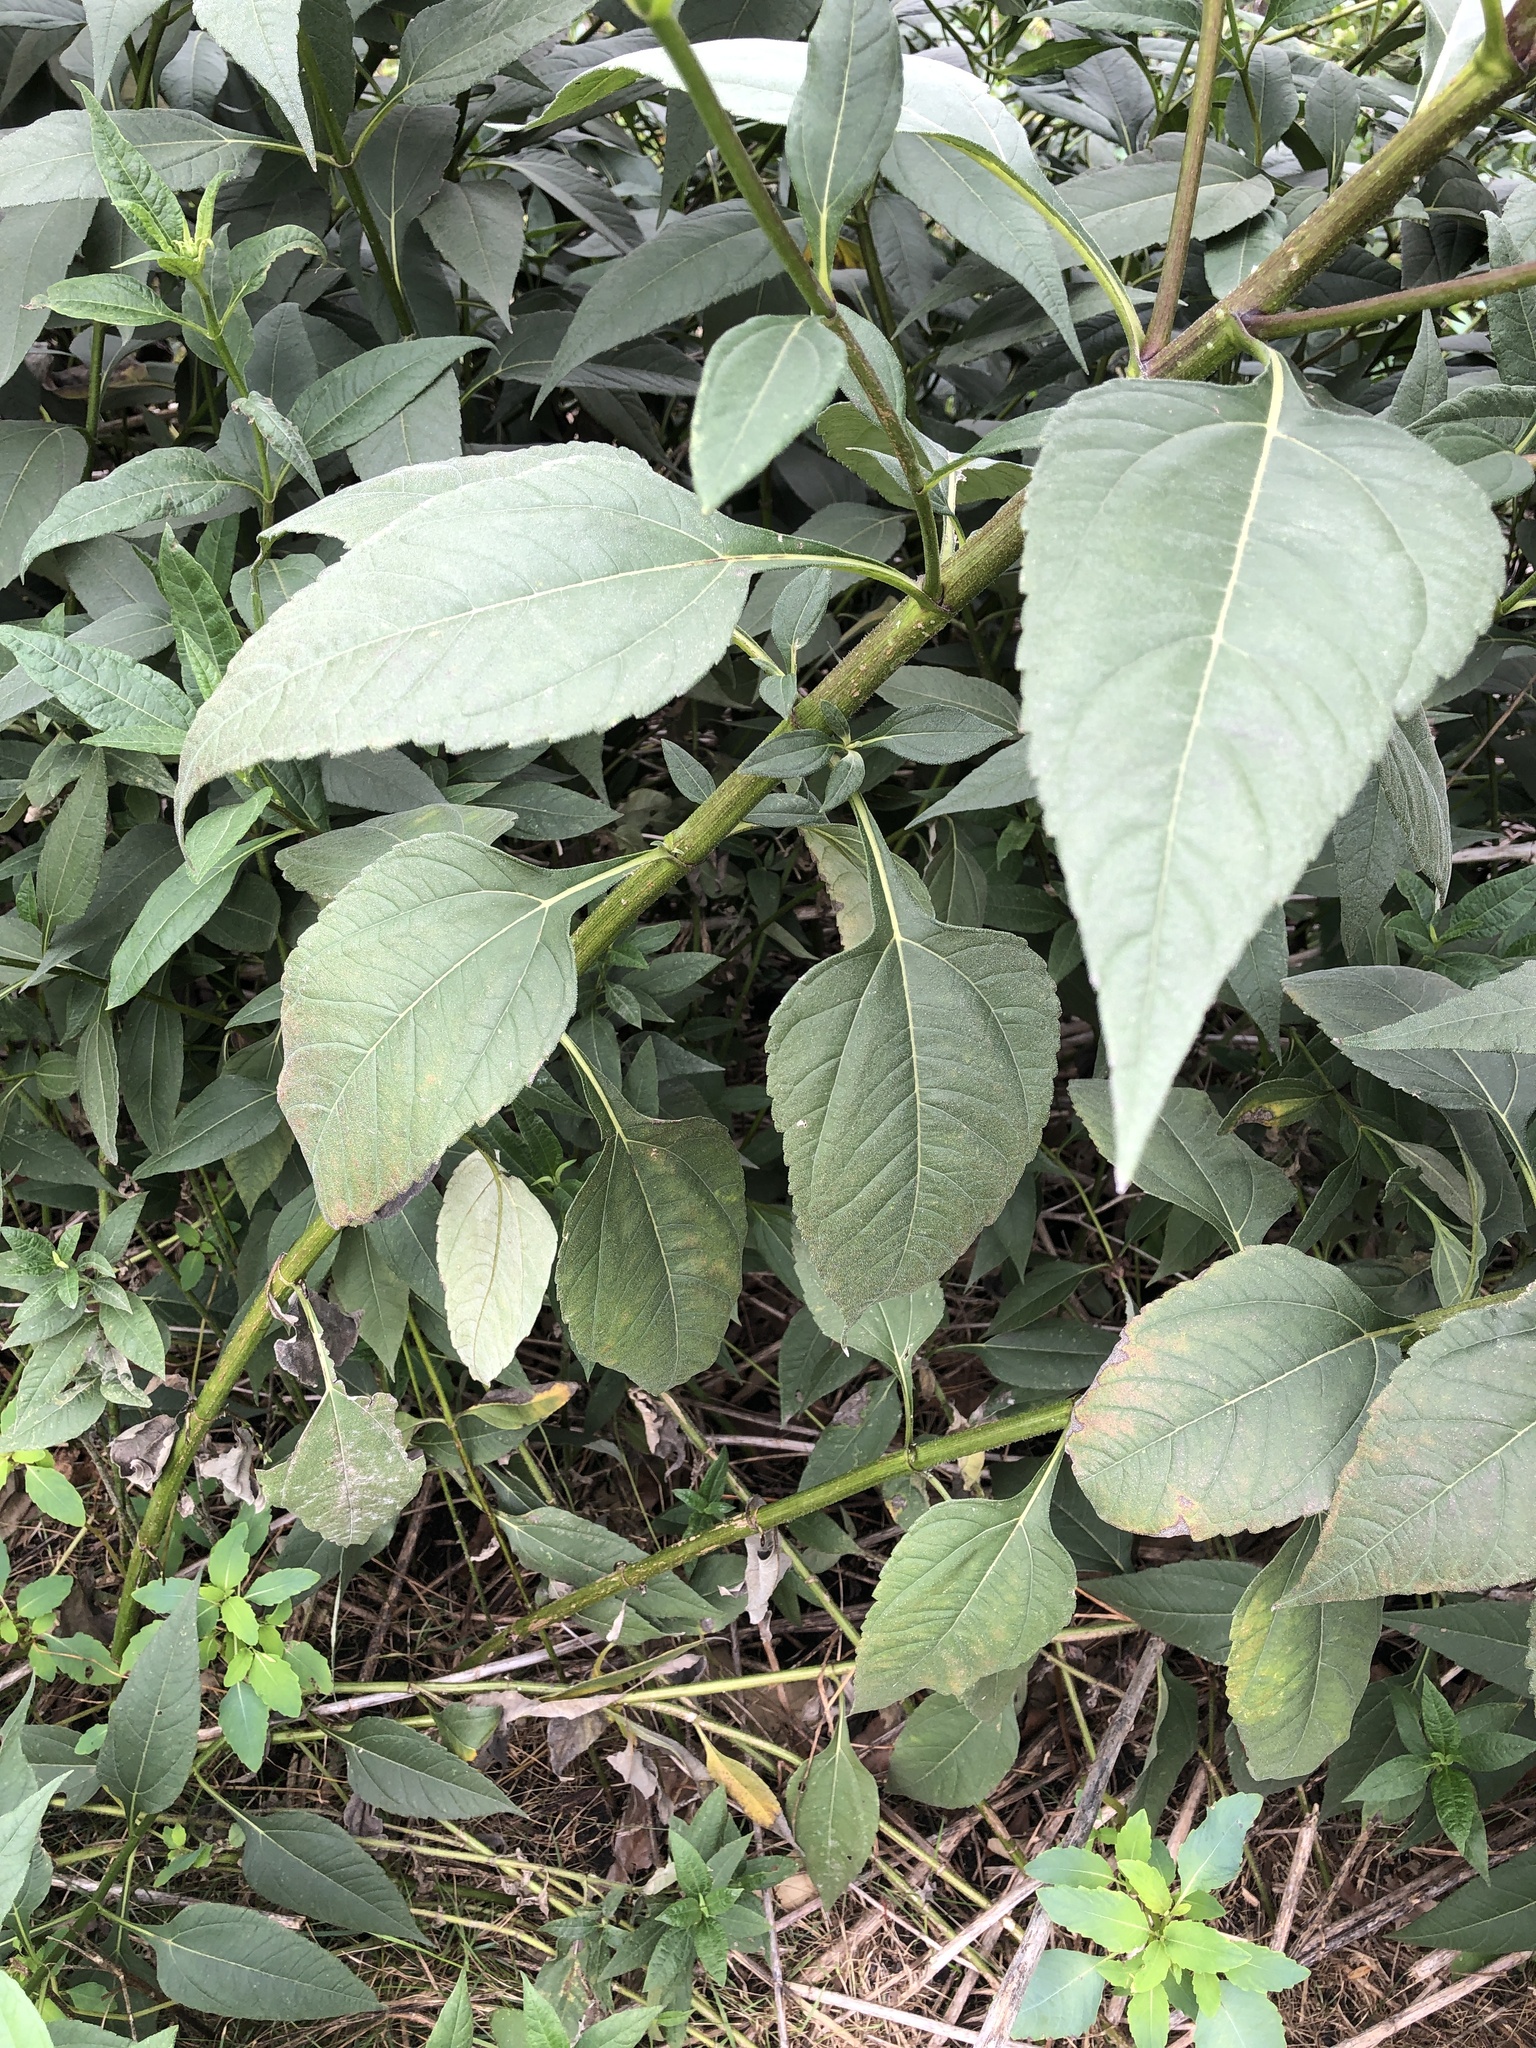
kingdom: Plantae
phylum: Tracheophyta
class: Magnoliopsida
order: Asterales
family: Asteraceae
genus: Helianthus
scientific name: Helianthus tuberosus
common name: Jerusalem artichoke
